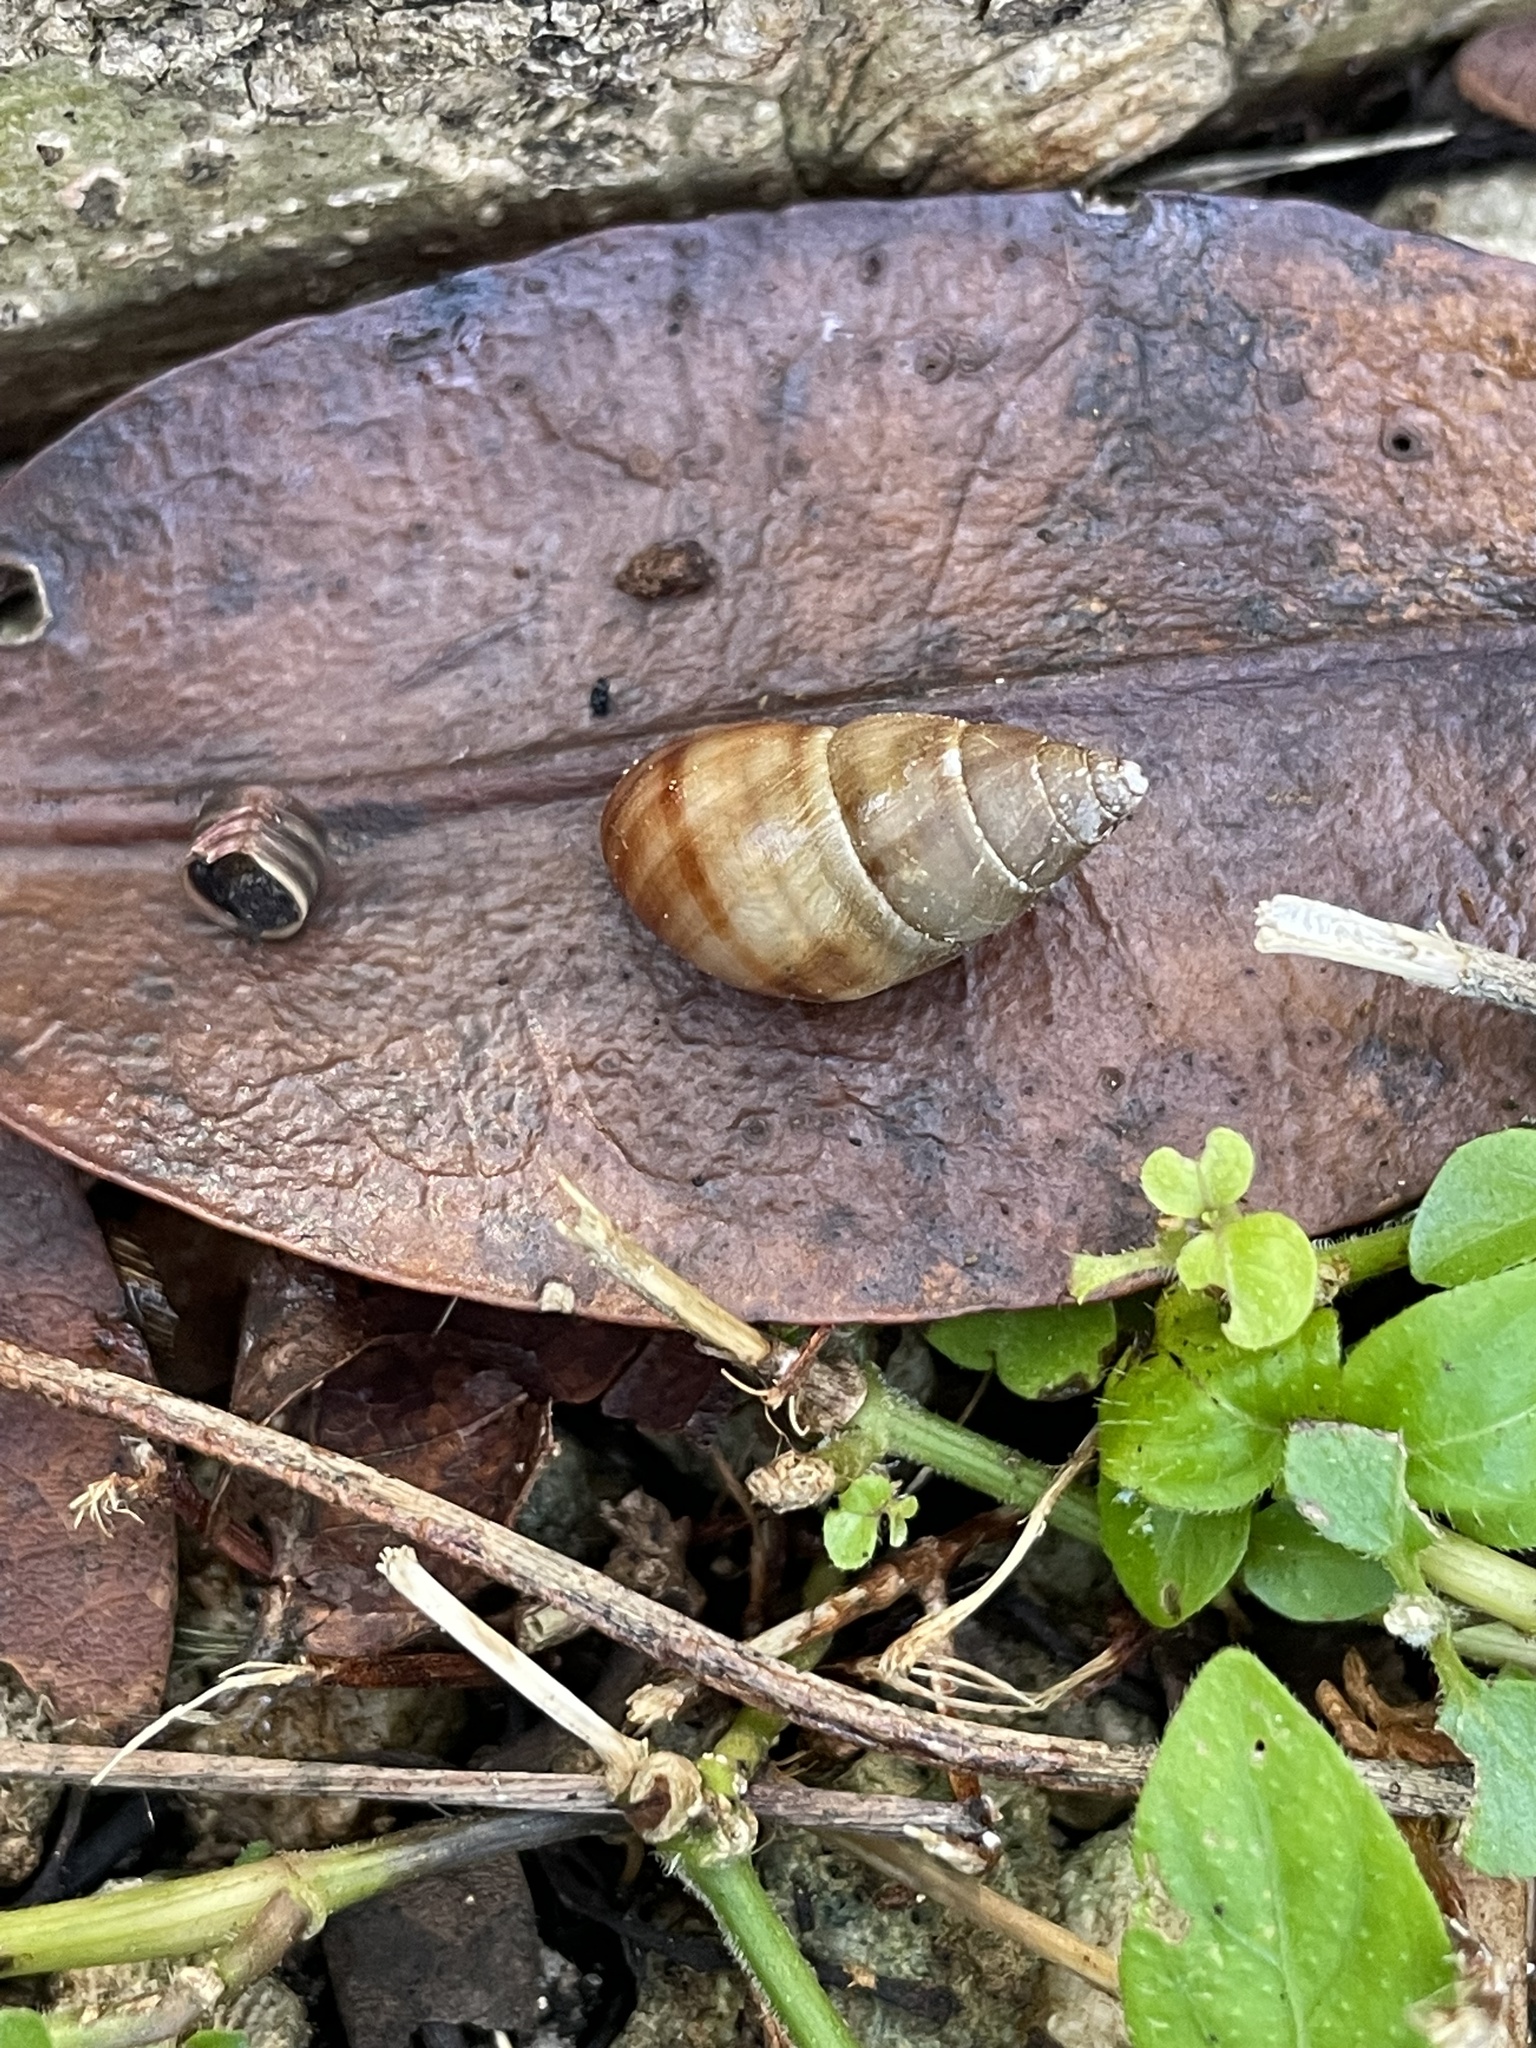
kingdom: Animalia
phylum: Mollusca
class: Gastropoda
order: Stylommatophora
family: Bulimulidae
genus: Bulimulus
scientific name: Bulimulus guadalupensis
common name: West indian bulimulus
